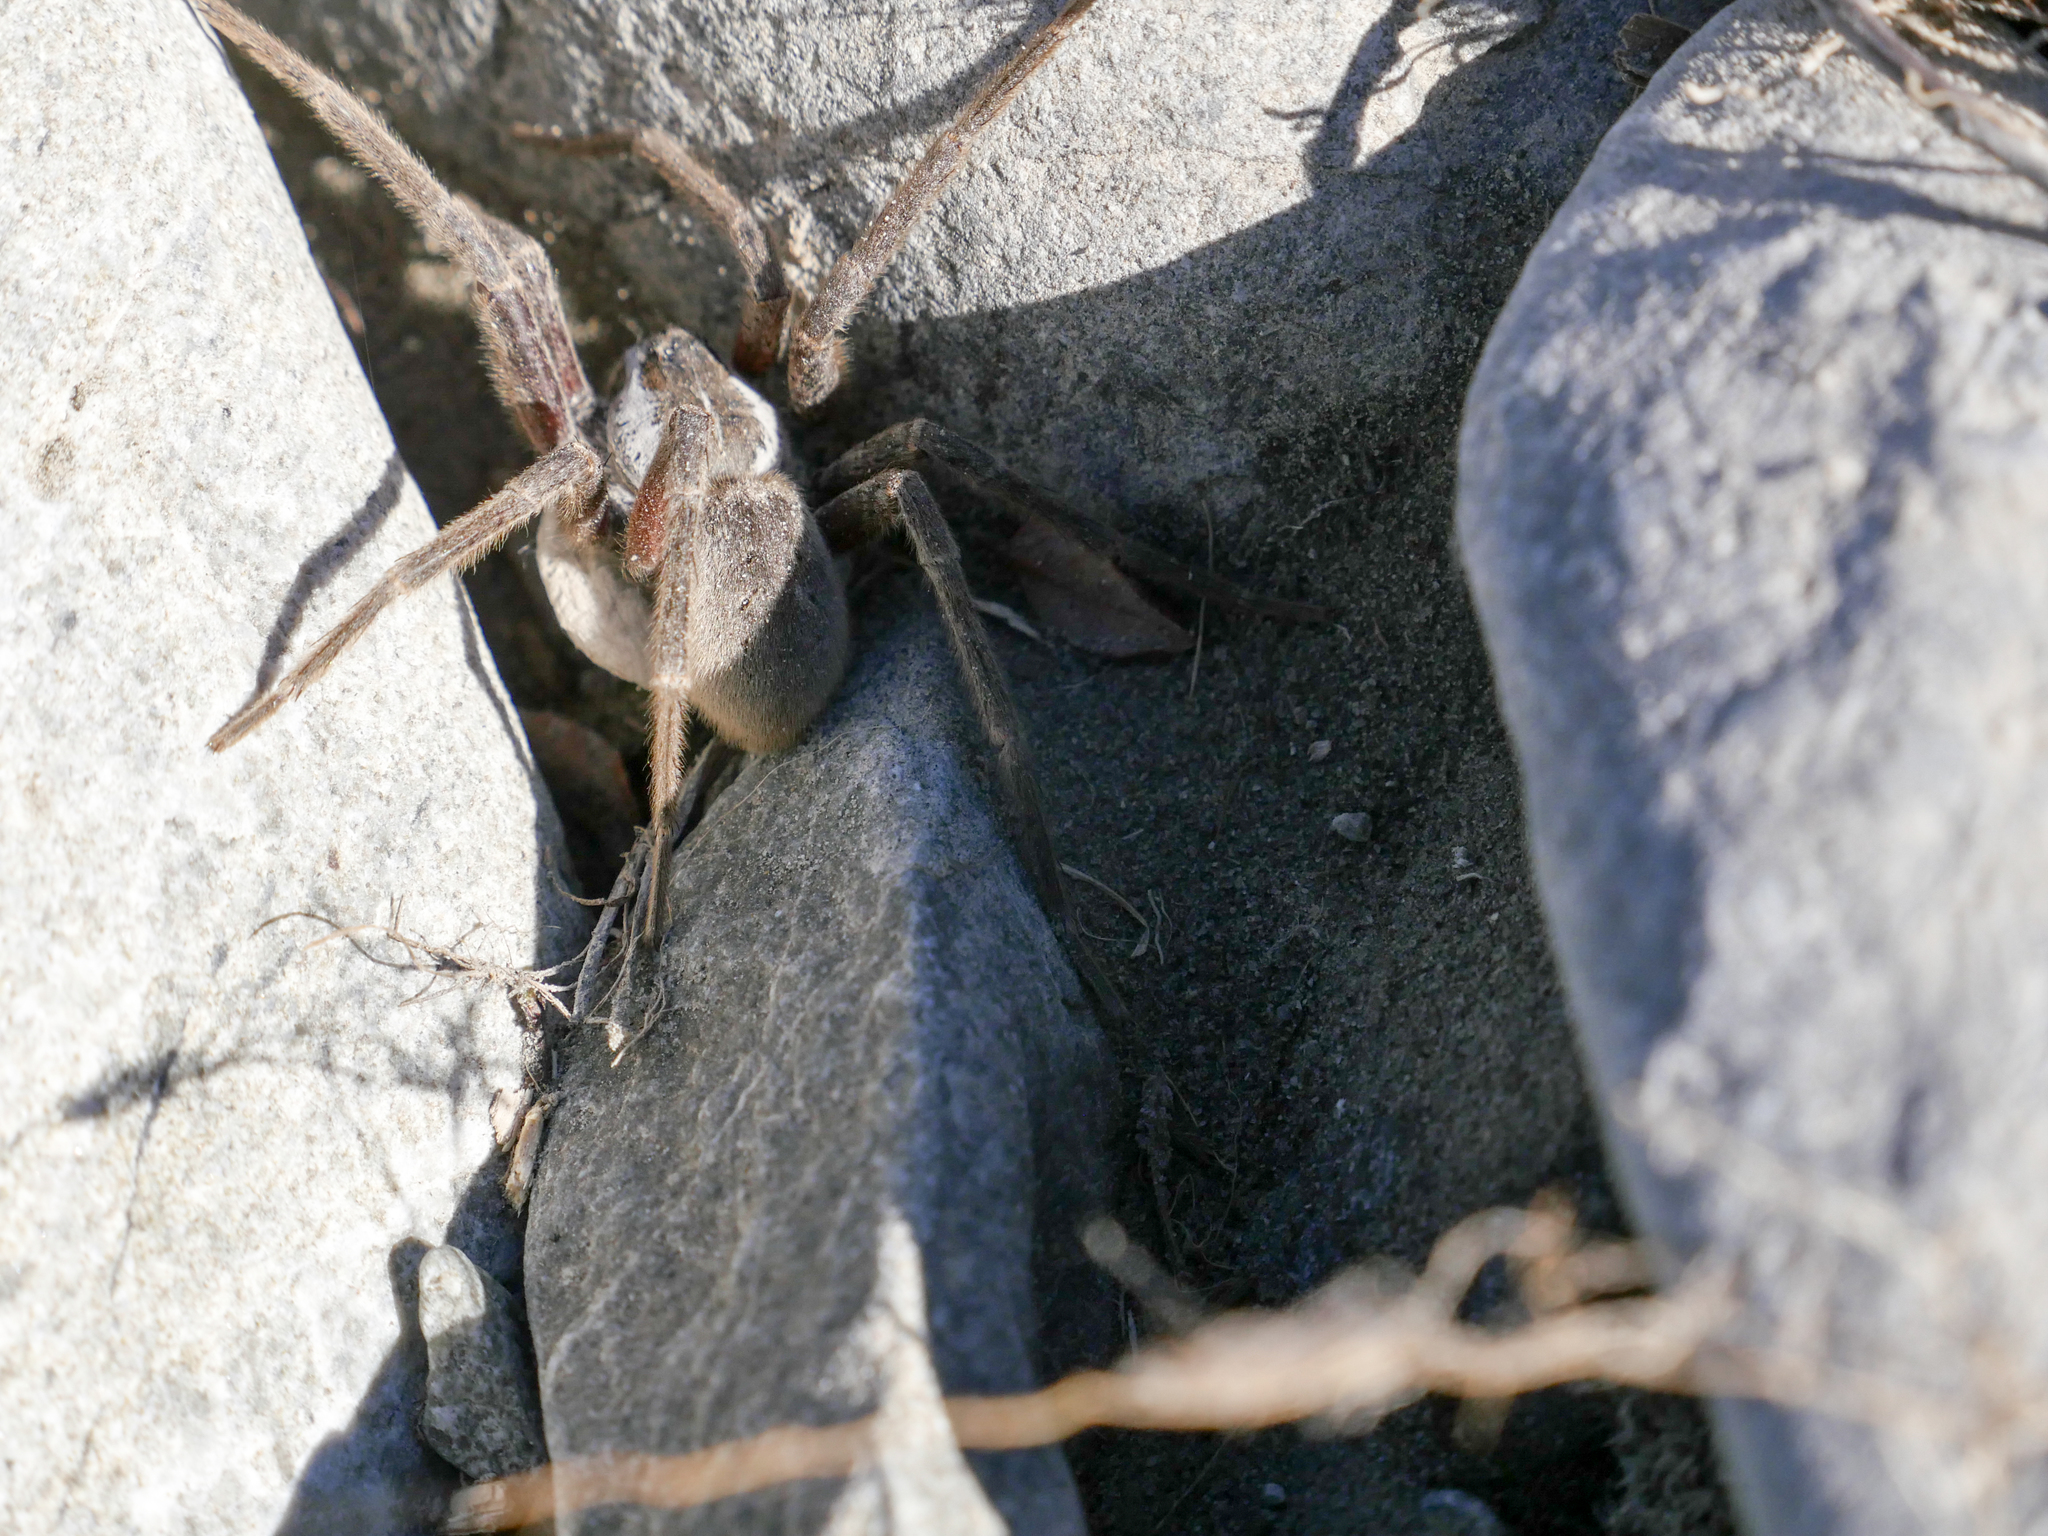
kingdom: Animalia
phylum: Arthropoda
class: Arachnida
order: Araneae
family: Pisauridae
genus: Dolomedes
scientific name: Dolomedes aquaticus
